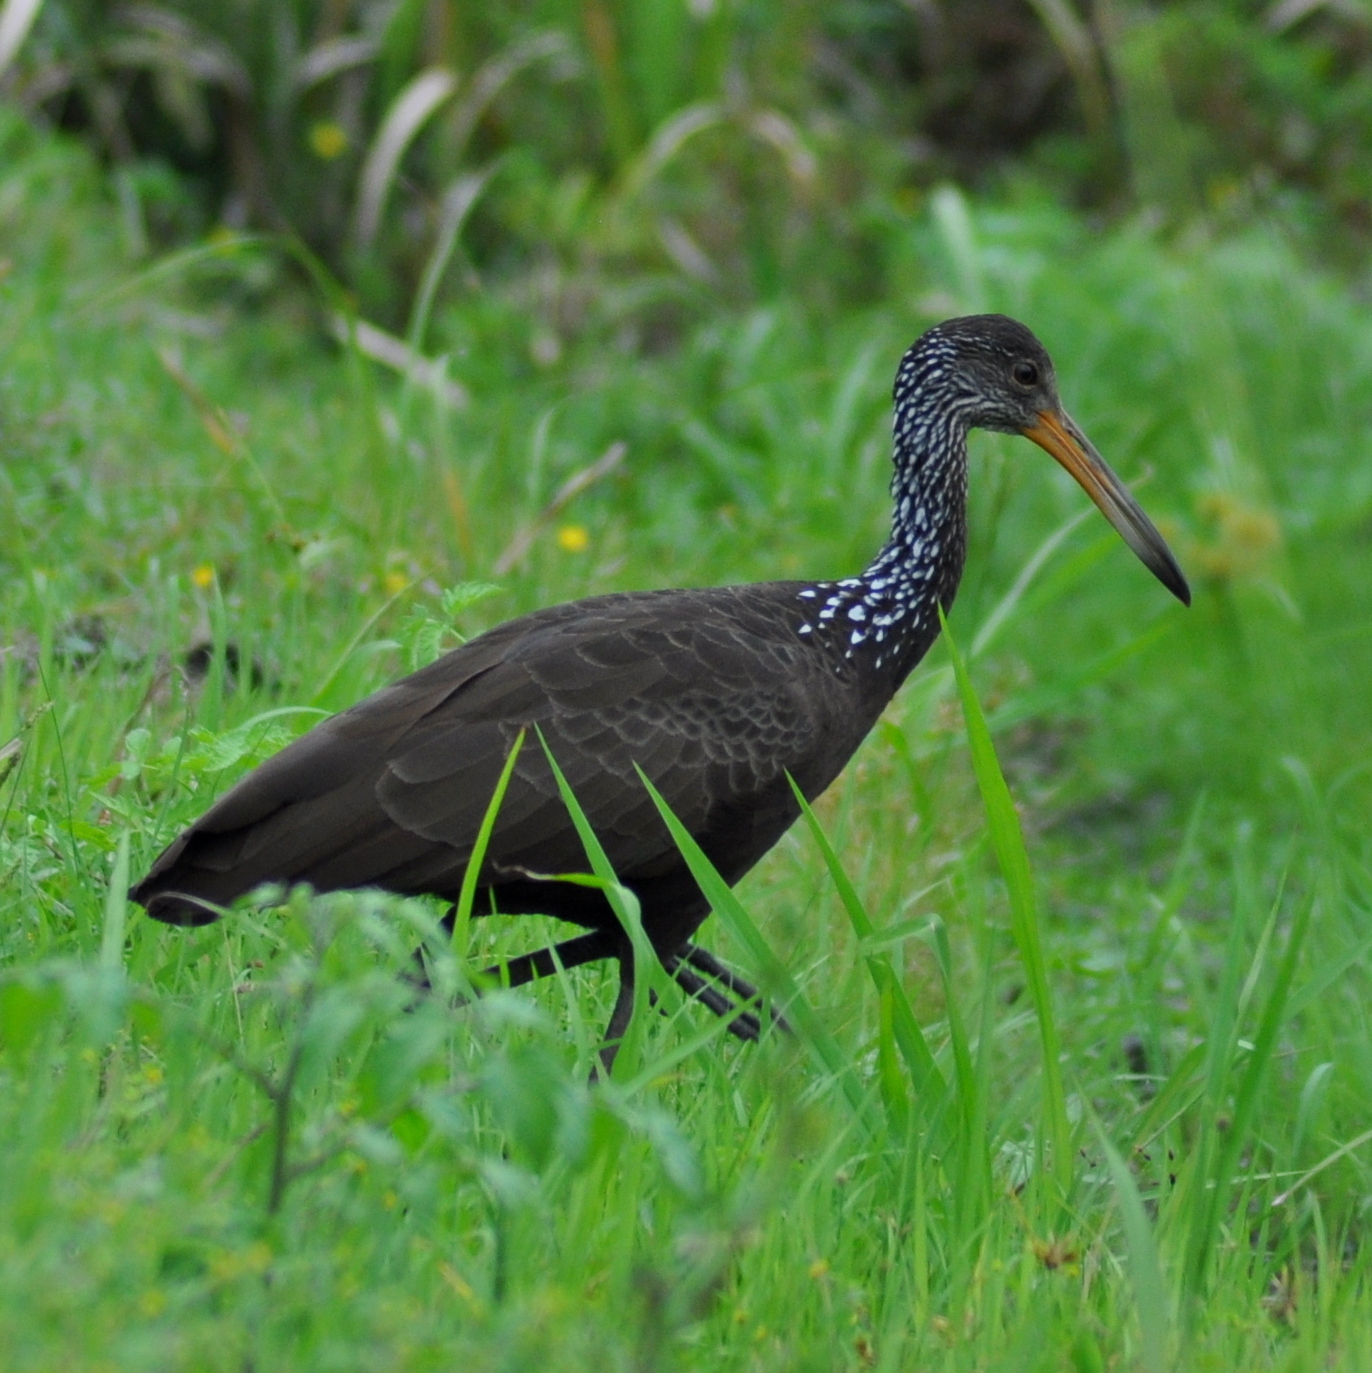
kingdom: Animalia
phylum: Chordata
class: Aves
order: Gruiformes
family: Aramidae
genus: Aramus
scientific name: Aramus guarauna
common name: Limpkin
